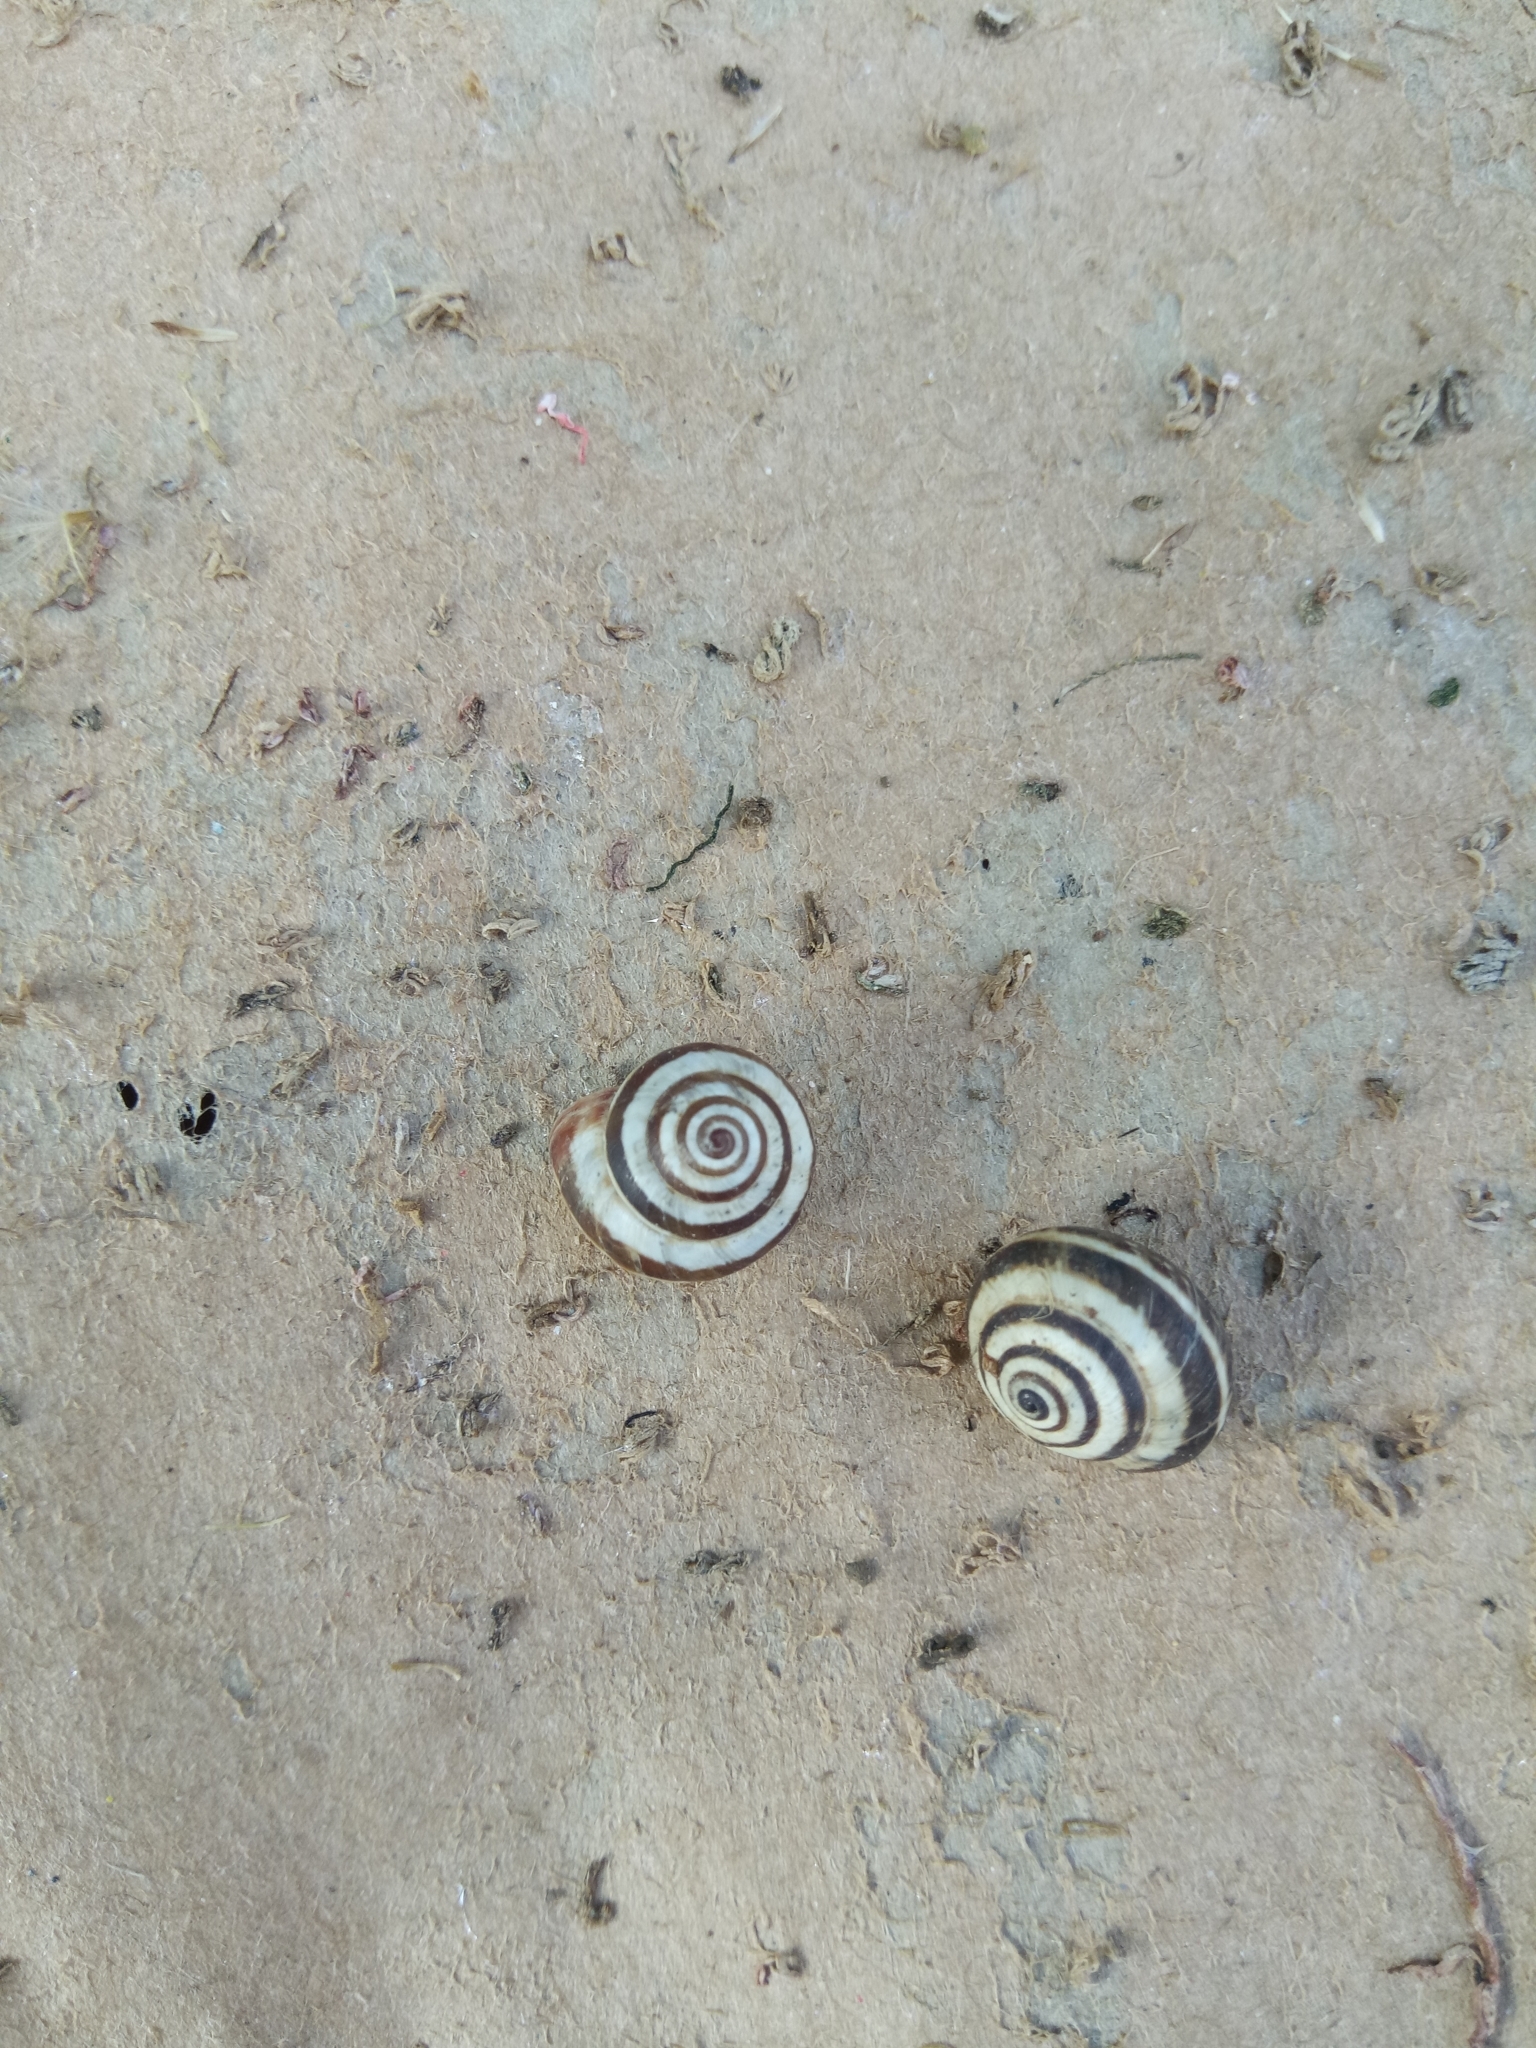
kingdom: Animalia
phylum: Mollusca
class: Gastropoda
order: Stylommatophora
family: Geomitridae
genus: Cernuella
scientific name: Cernuella virgata
